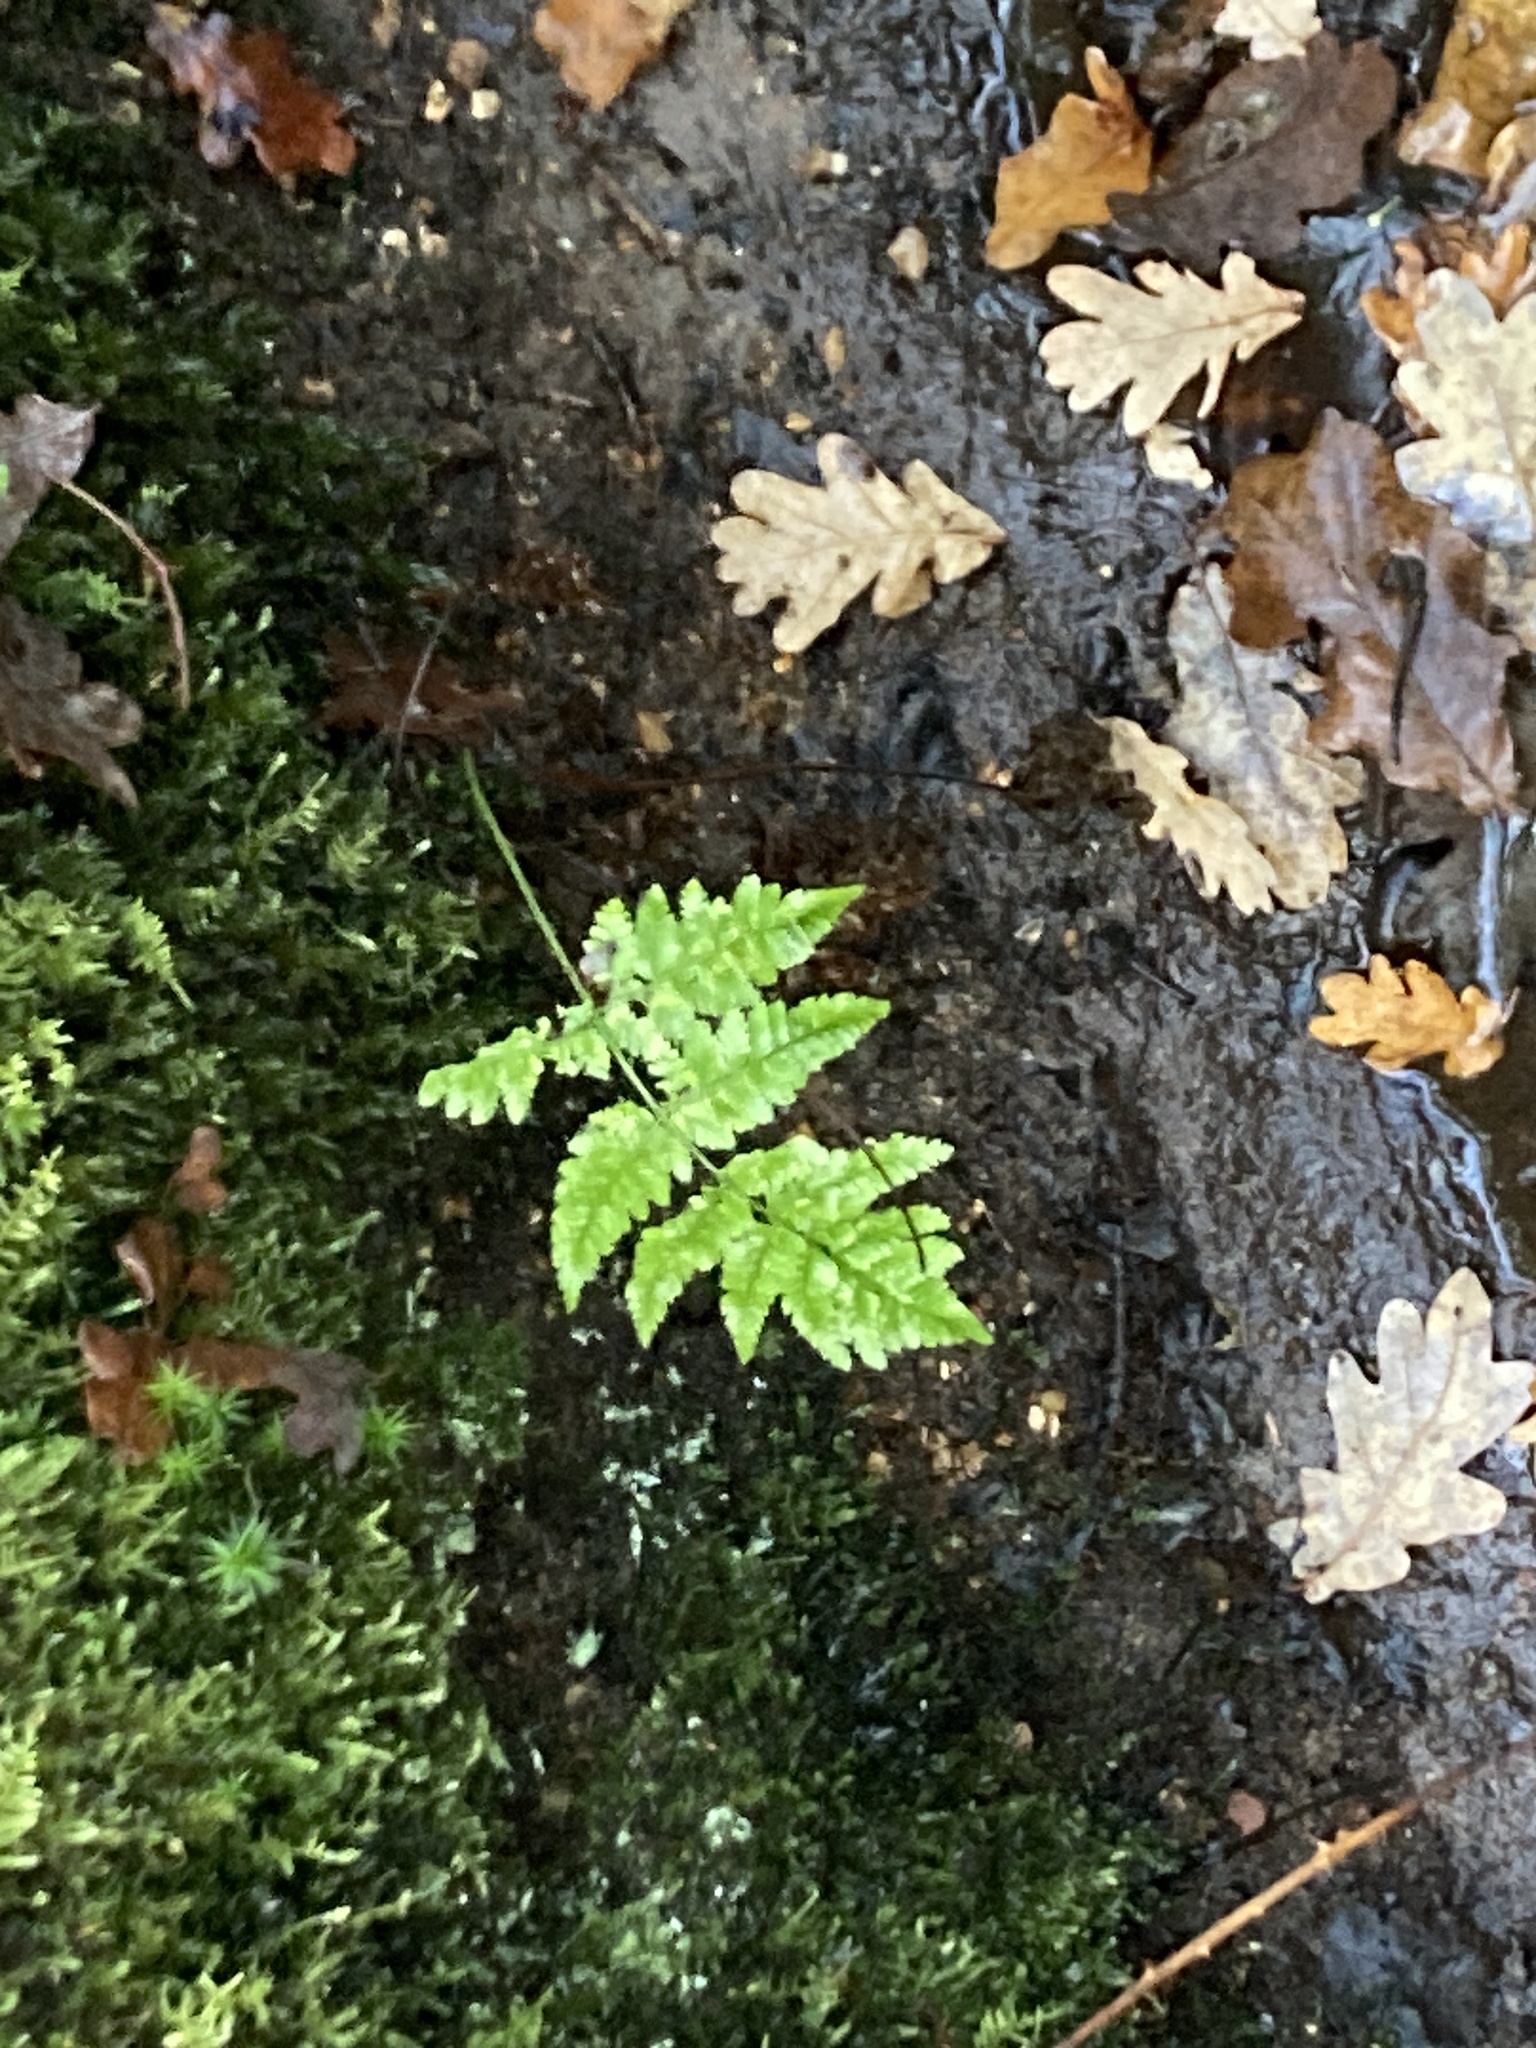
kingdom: Plantae
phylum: Tracheophyta
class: Polypodiopsida
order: Polypodiales
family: Dryopteridaceae
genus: Dryopteris
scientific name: Dryopteris dilatata
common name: Broad buckler-fern
